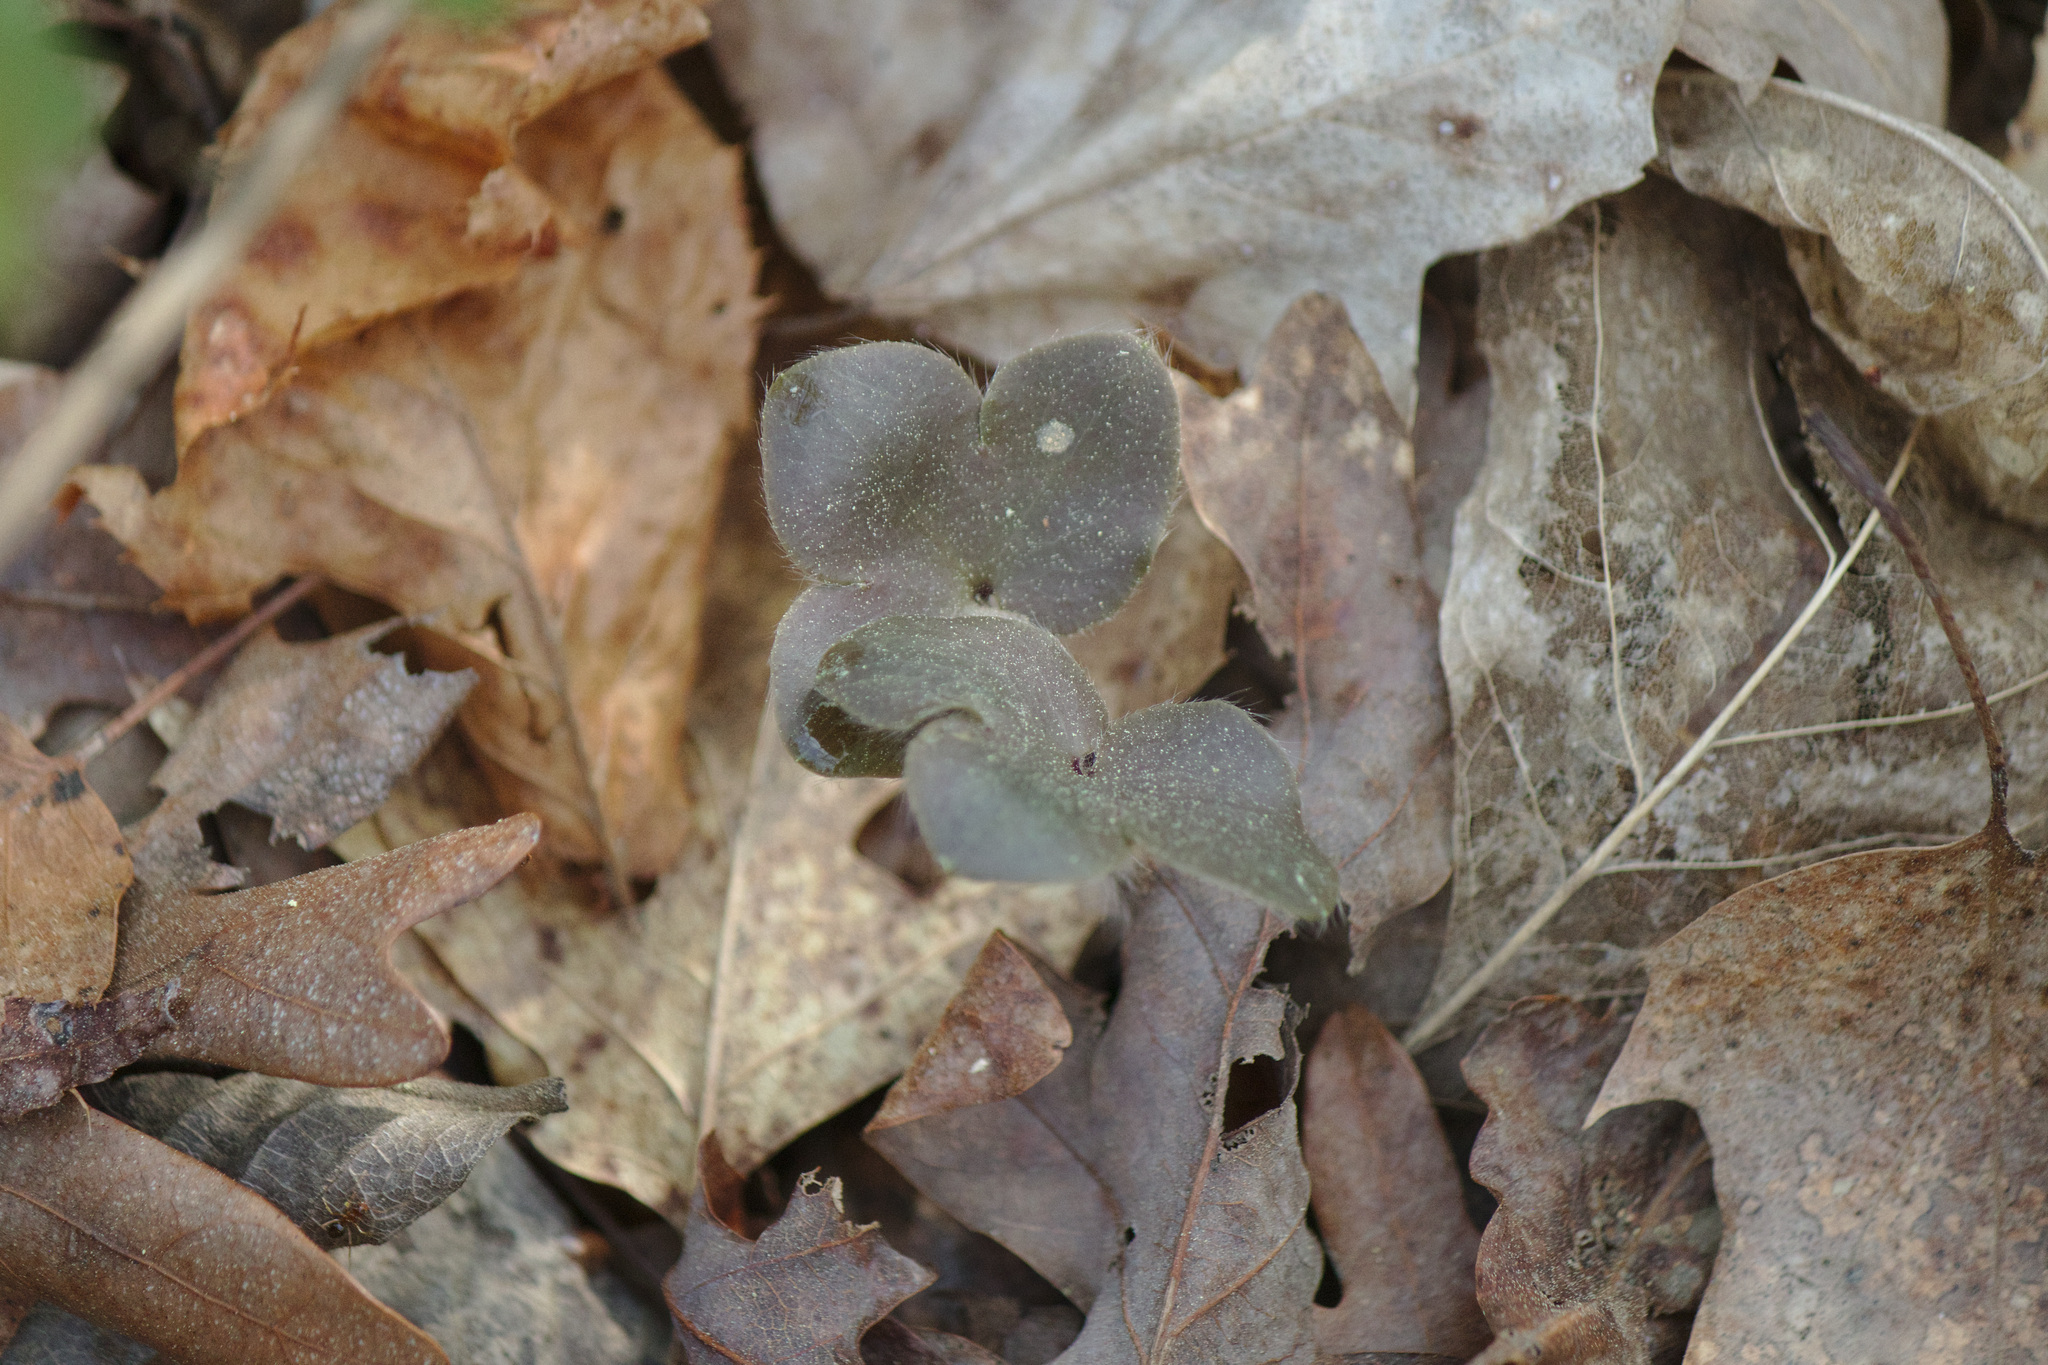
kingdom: Plantae
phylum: Tracheophyta
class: Magnoliopsida
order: Ranunculales
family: Ranunculaceae
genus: Hepatica
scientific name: Hepatica americana
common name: American hepatica
